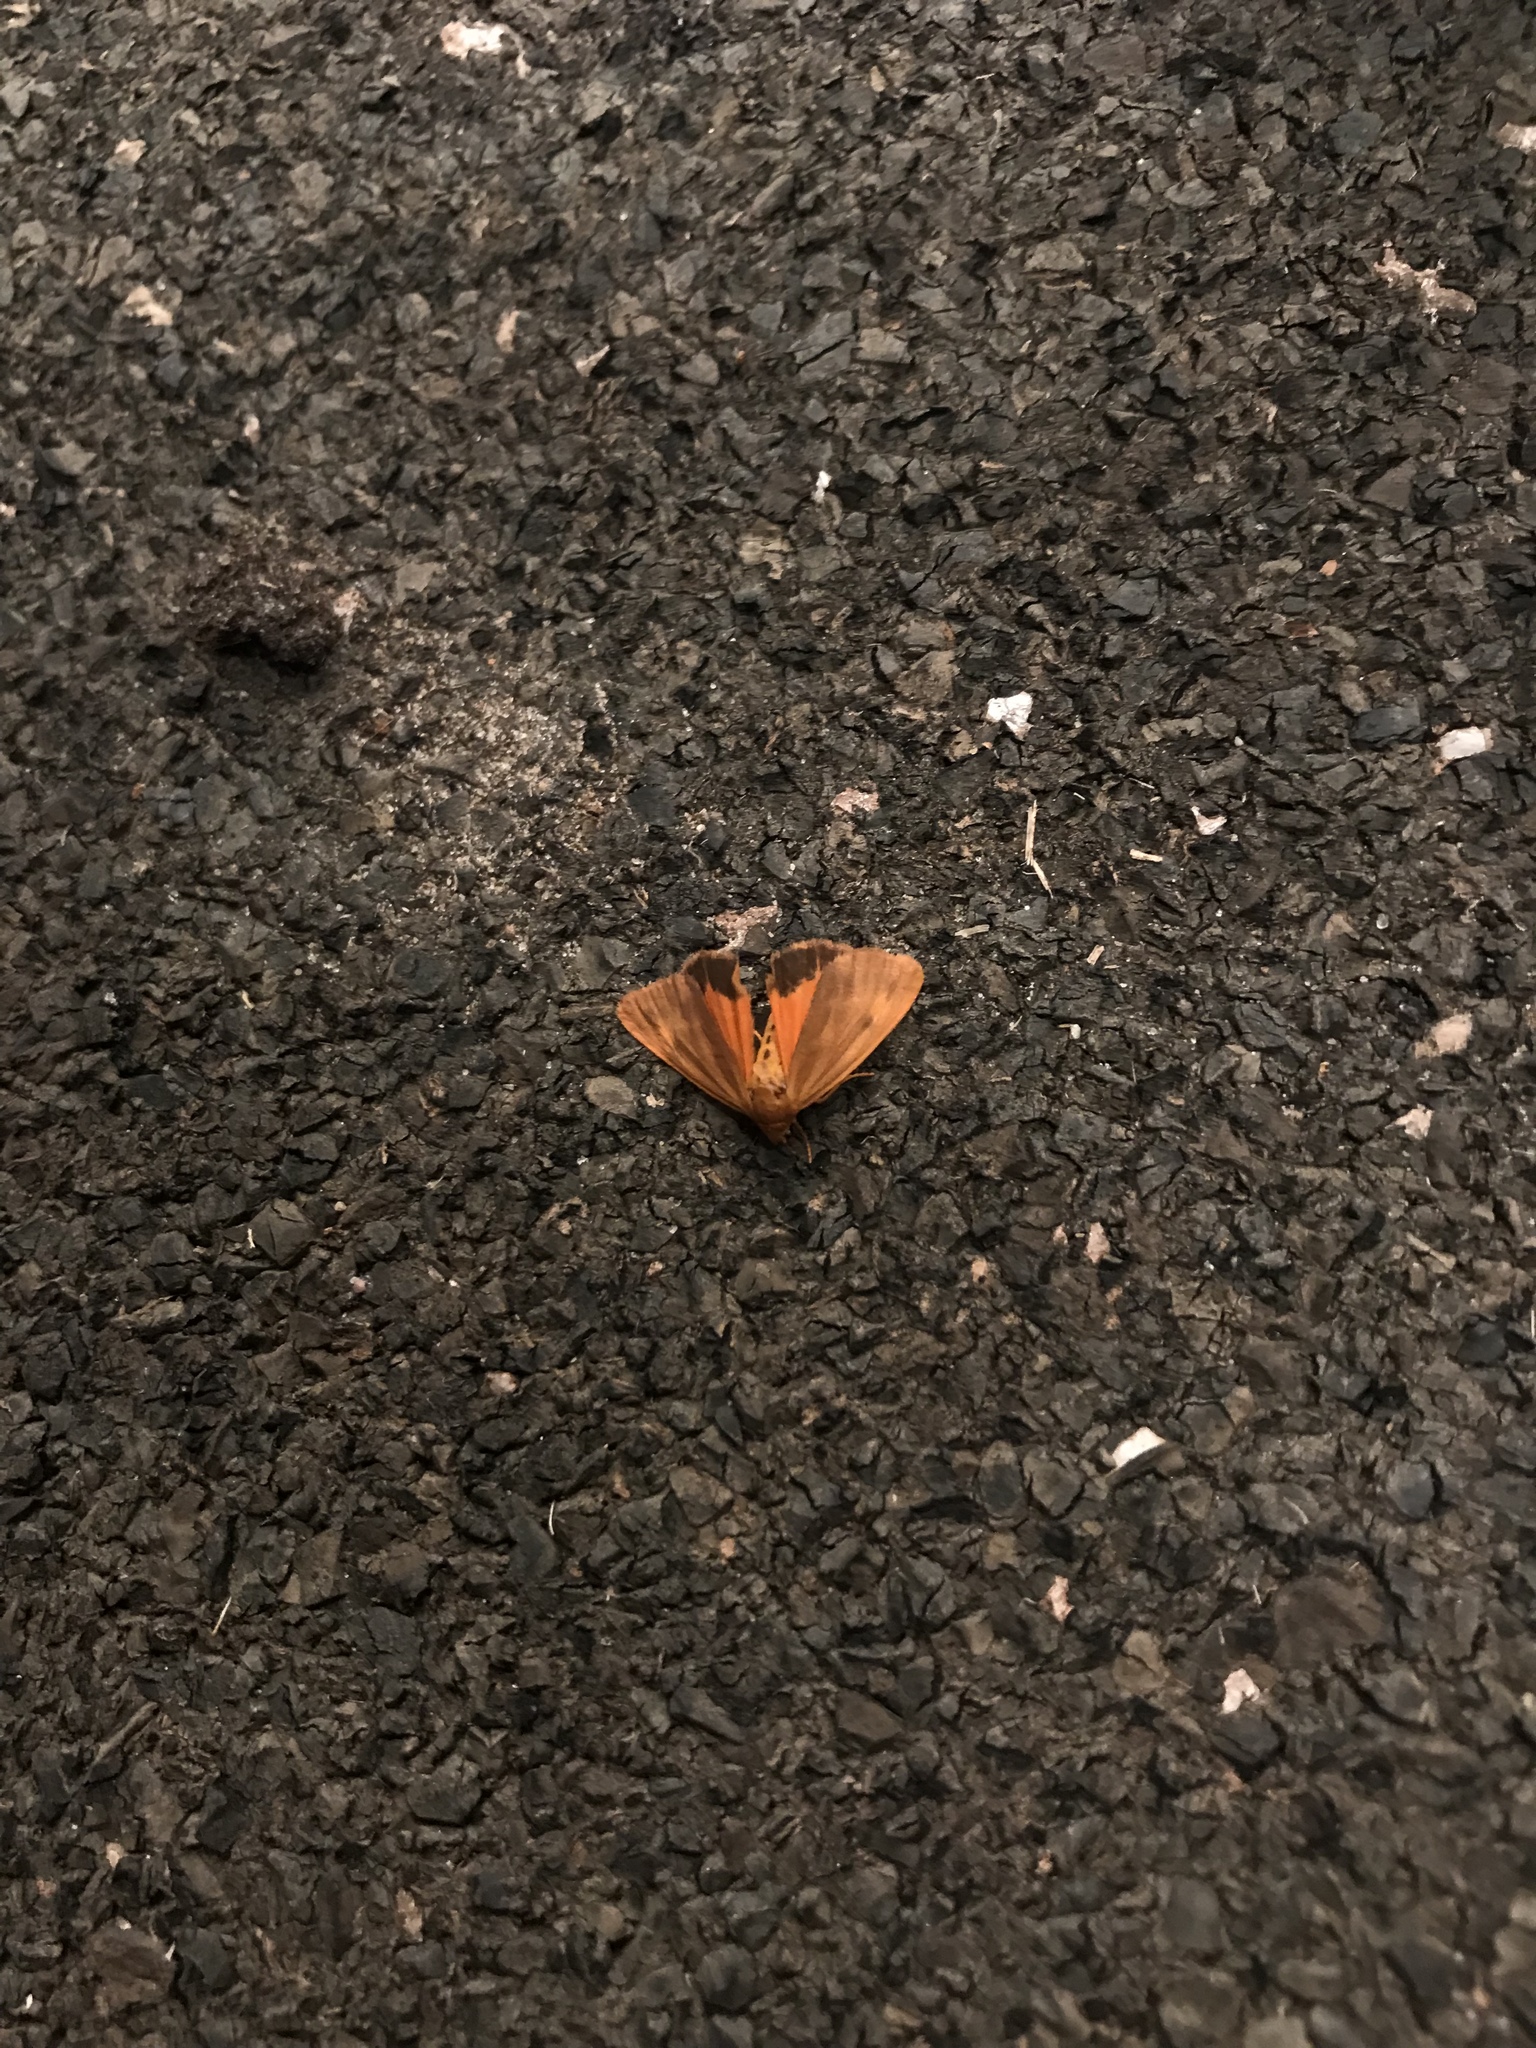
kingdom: Animalia
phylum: Arthropoda
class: Insecta
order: Lepidoptera
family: Erebidae
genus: Virbia
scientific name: Virbia aurantiaca
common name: Orange virbia moth
